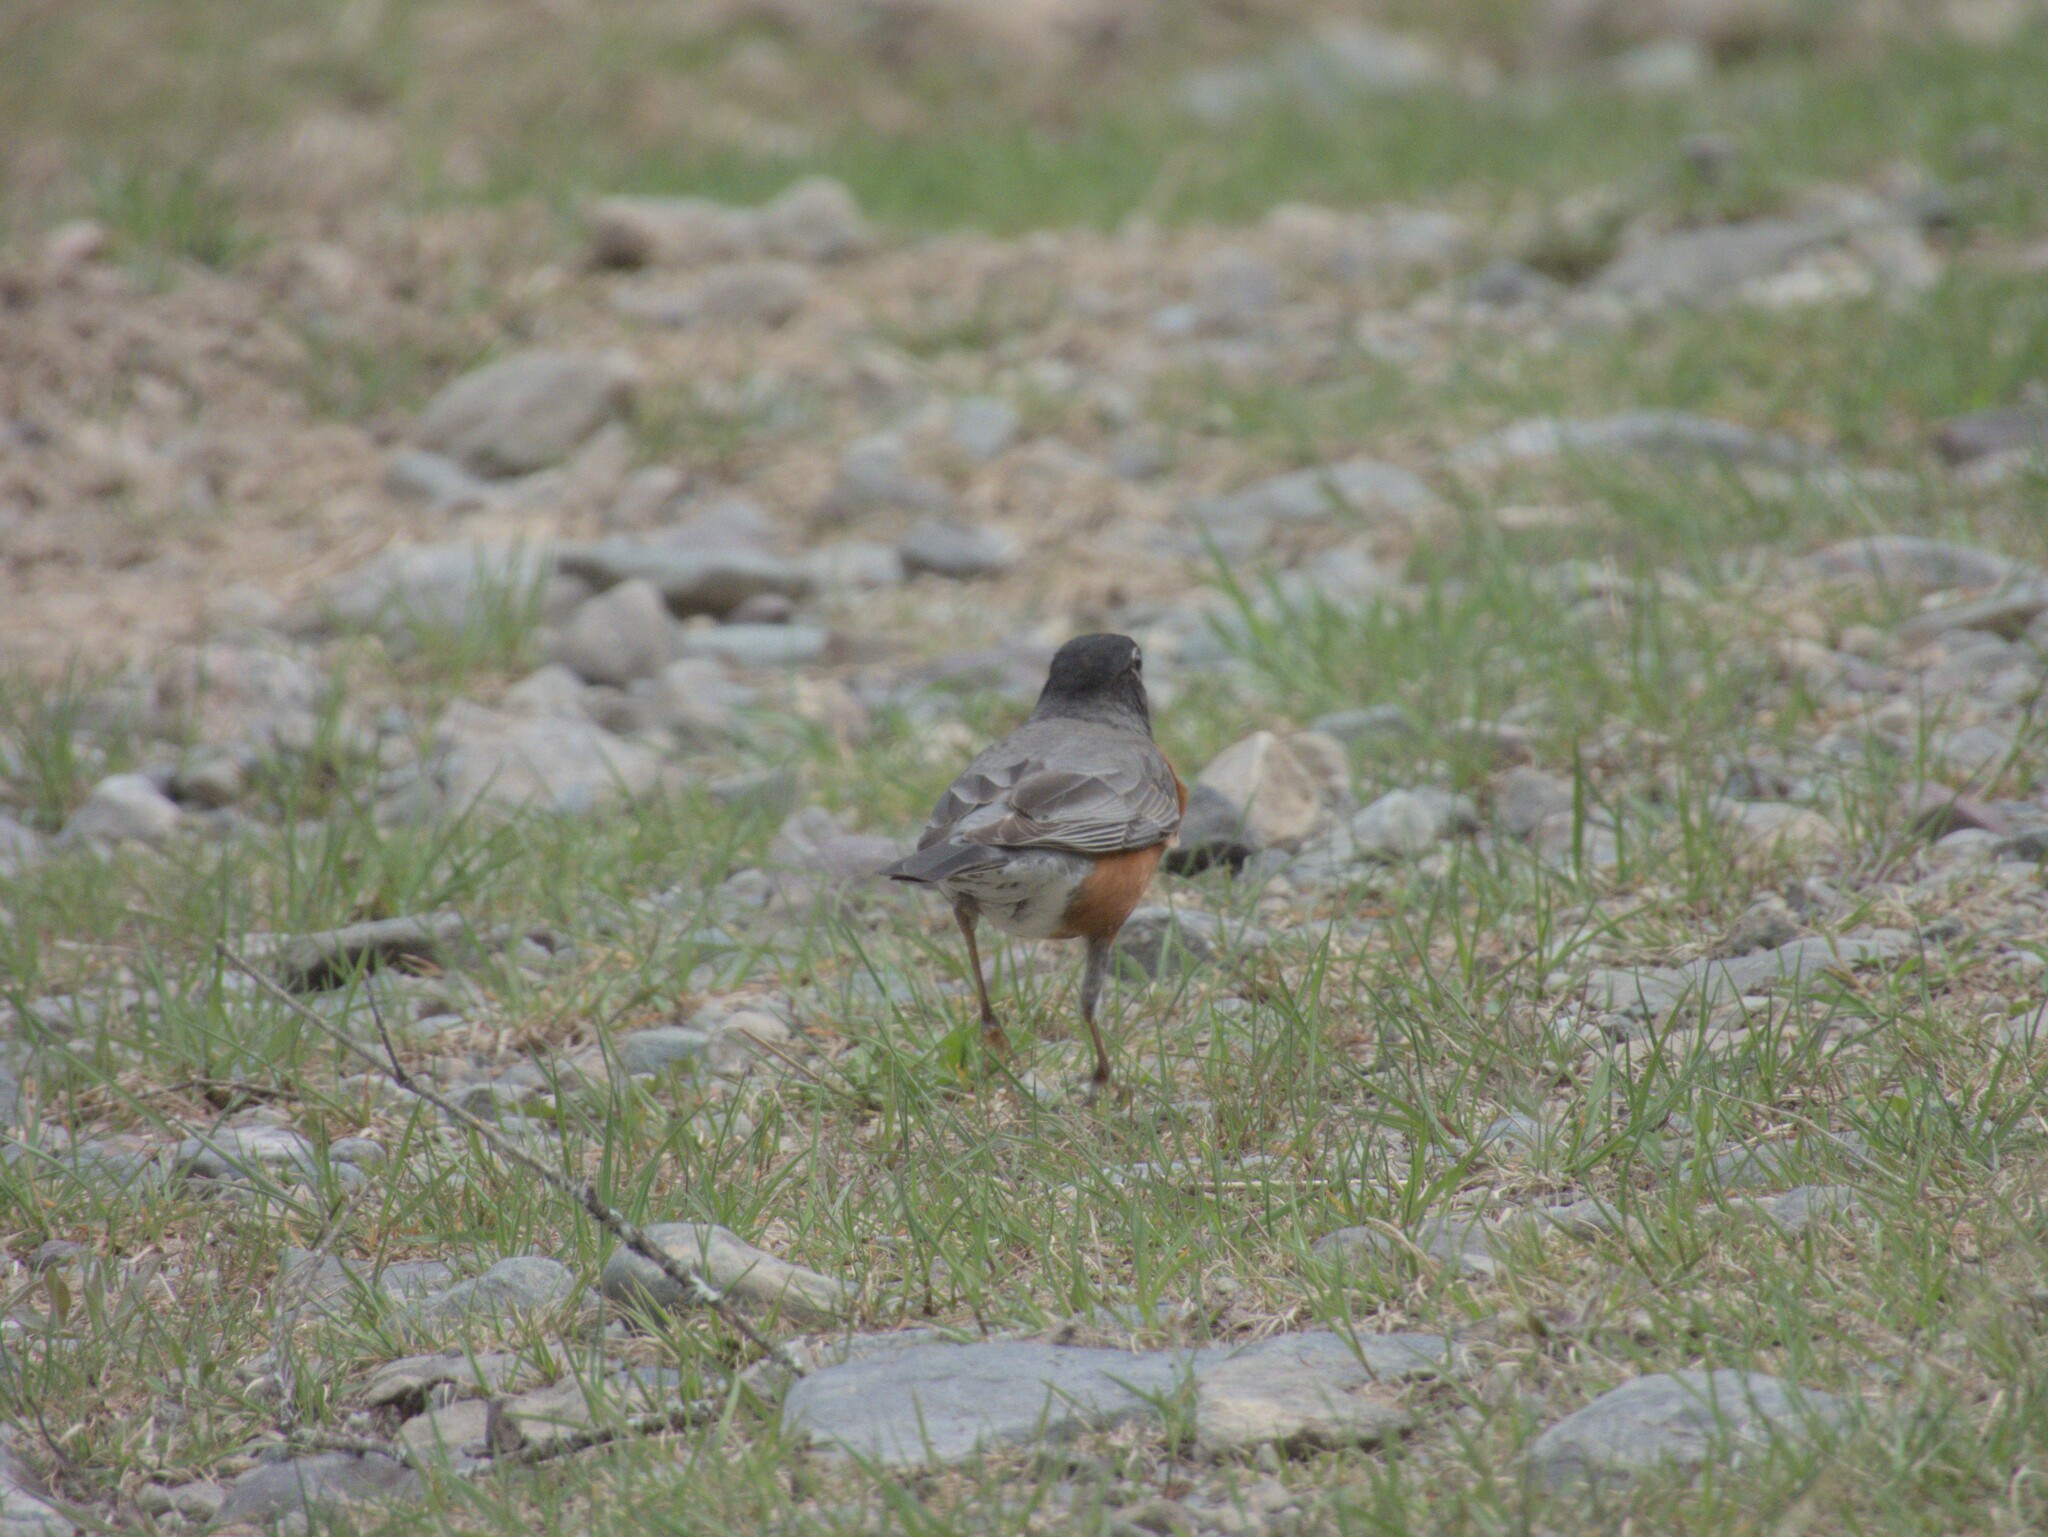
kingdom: Animalia
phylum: Chordata
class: Aves
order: Passeriformes
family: Turdidae
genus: Turdus
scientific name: Turdus migratorius
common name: American robin
